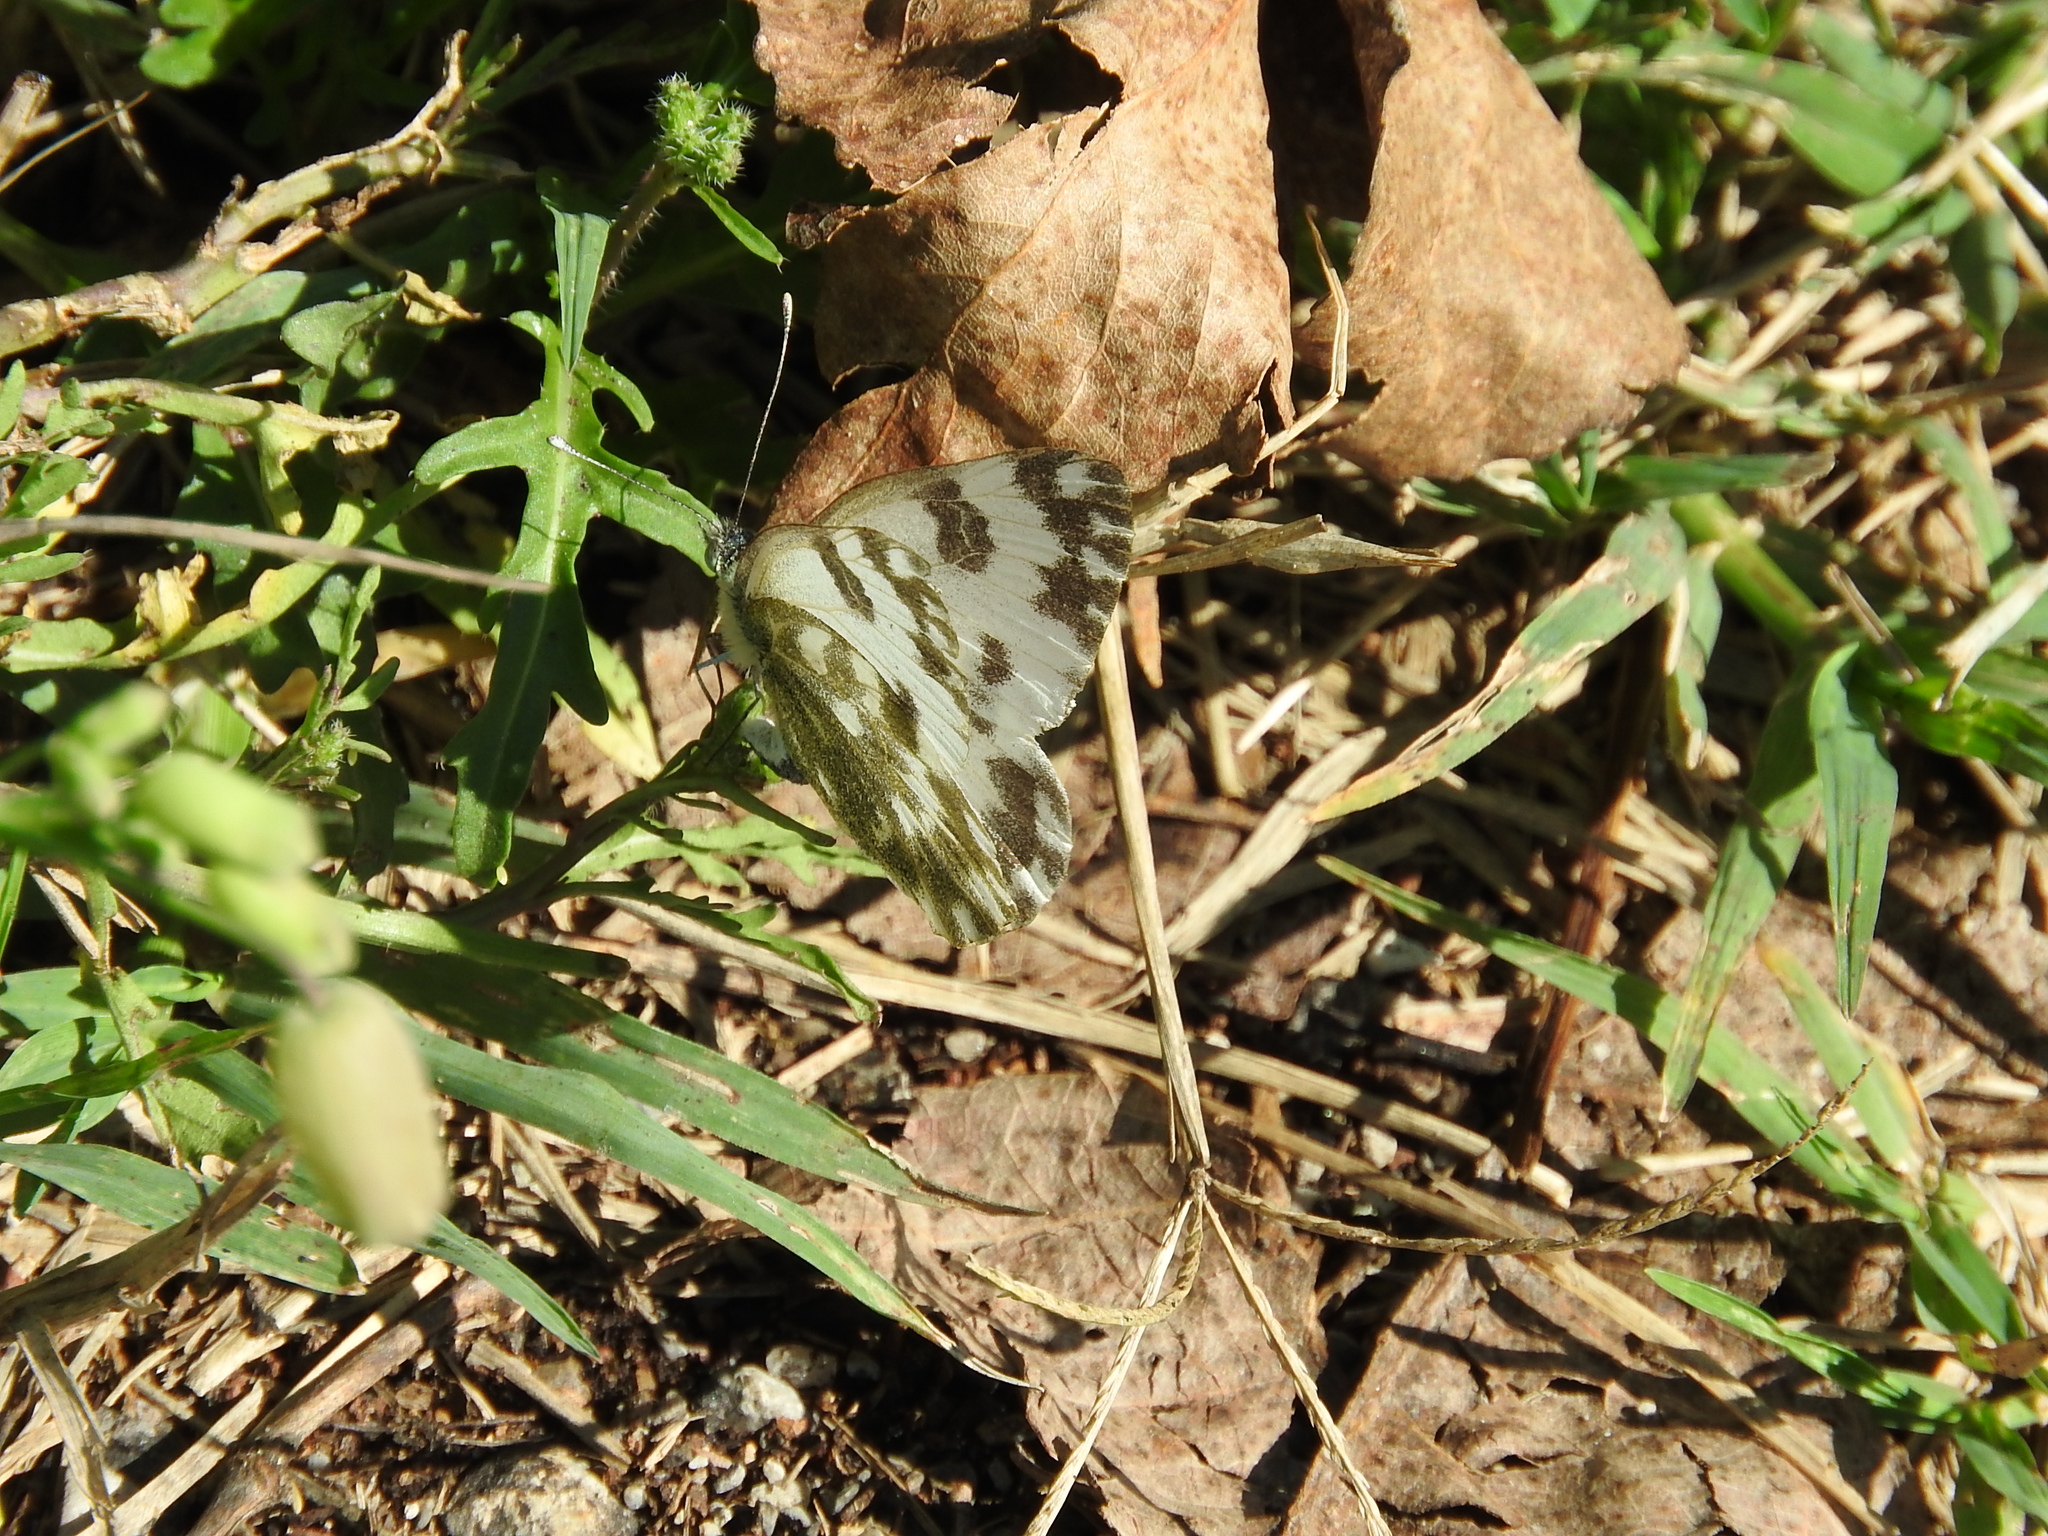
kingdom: Animalia
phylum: Arthropoda
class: Insecta
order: Lepidoptera
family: Pieridae
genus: Pontia
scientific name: Pontia edusa
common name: Eastern bath white
